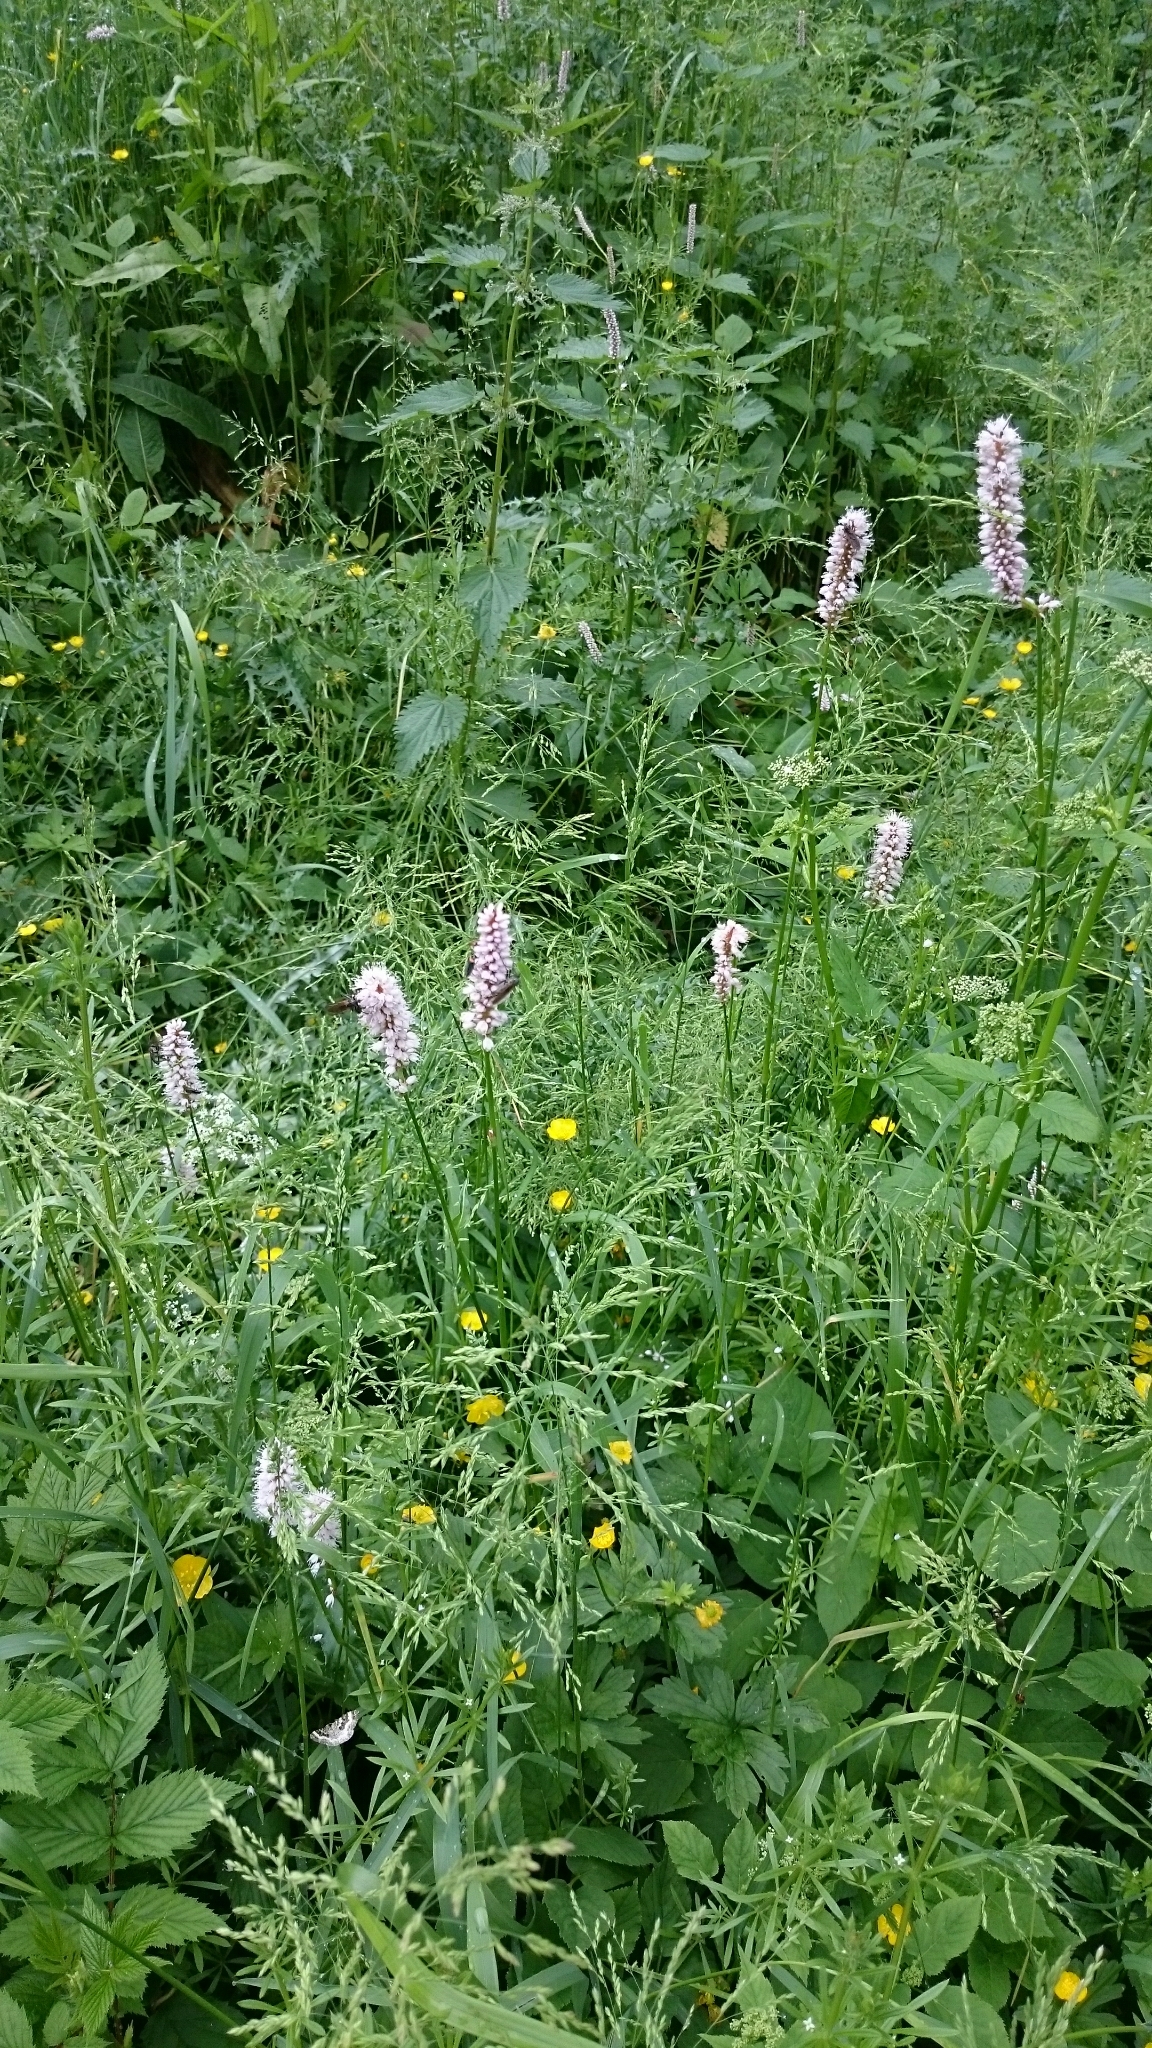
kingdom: Plantae
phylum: Tracheophyta
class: Magnoliopsida
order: Caryophyllales
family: Polygonaceae
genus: Bistorta
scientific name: Bistorta officinalis
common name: Common bistort
